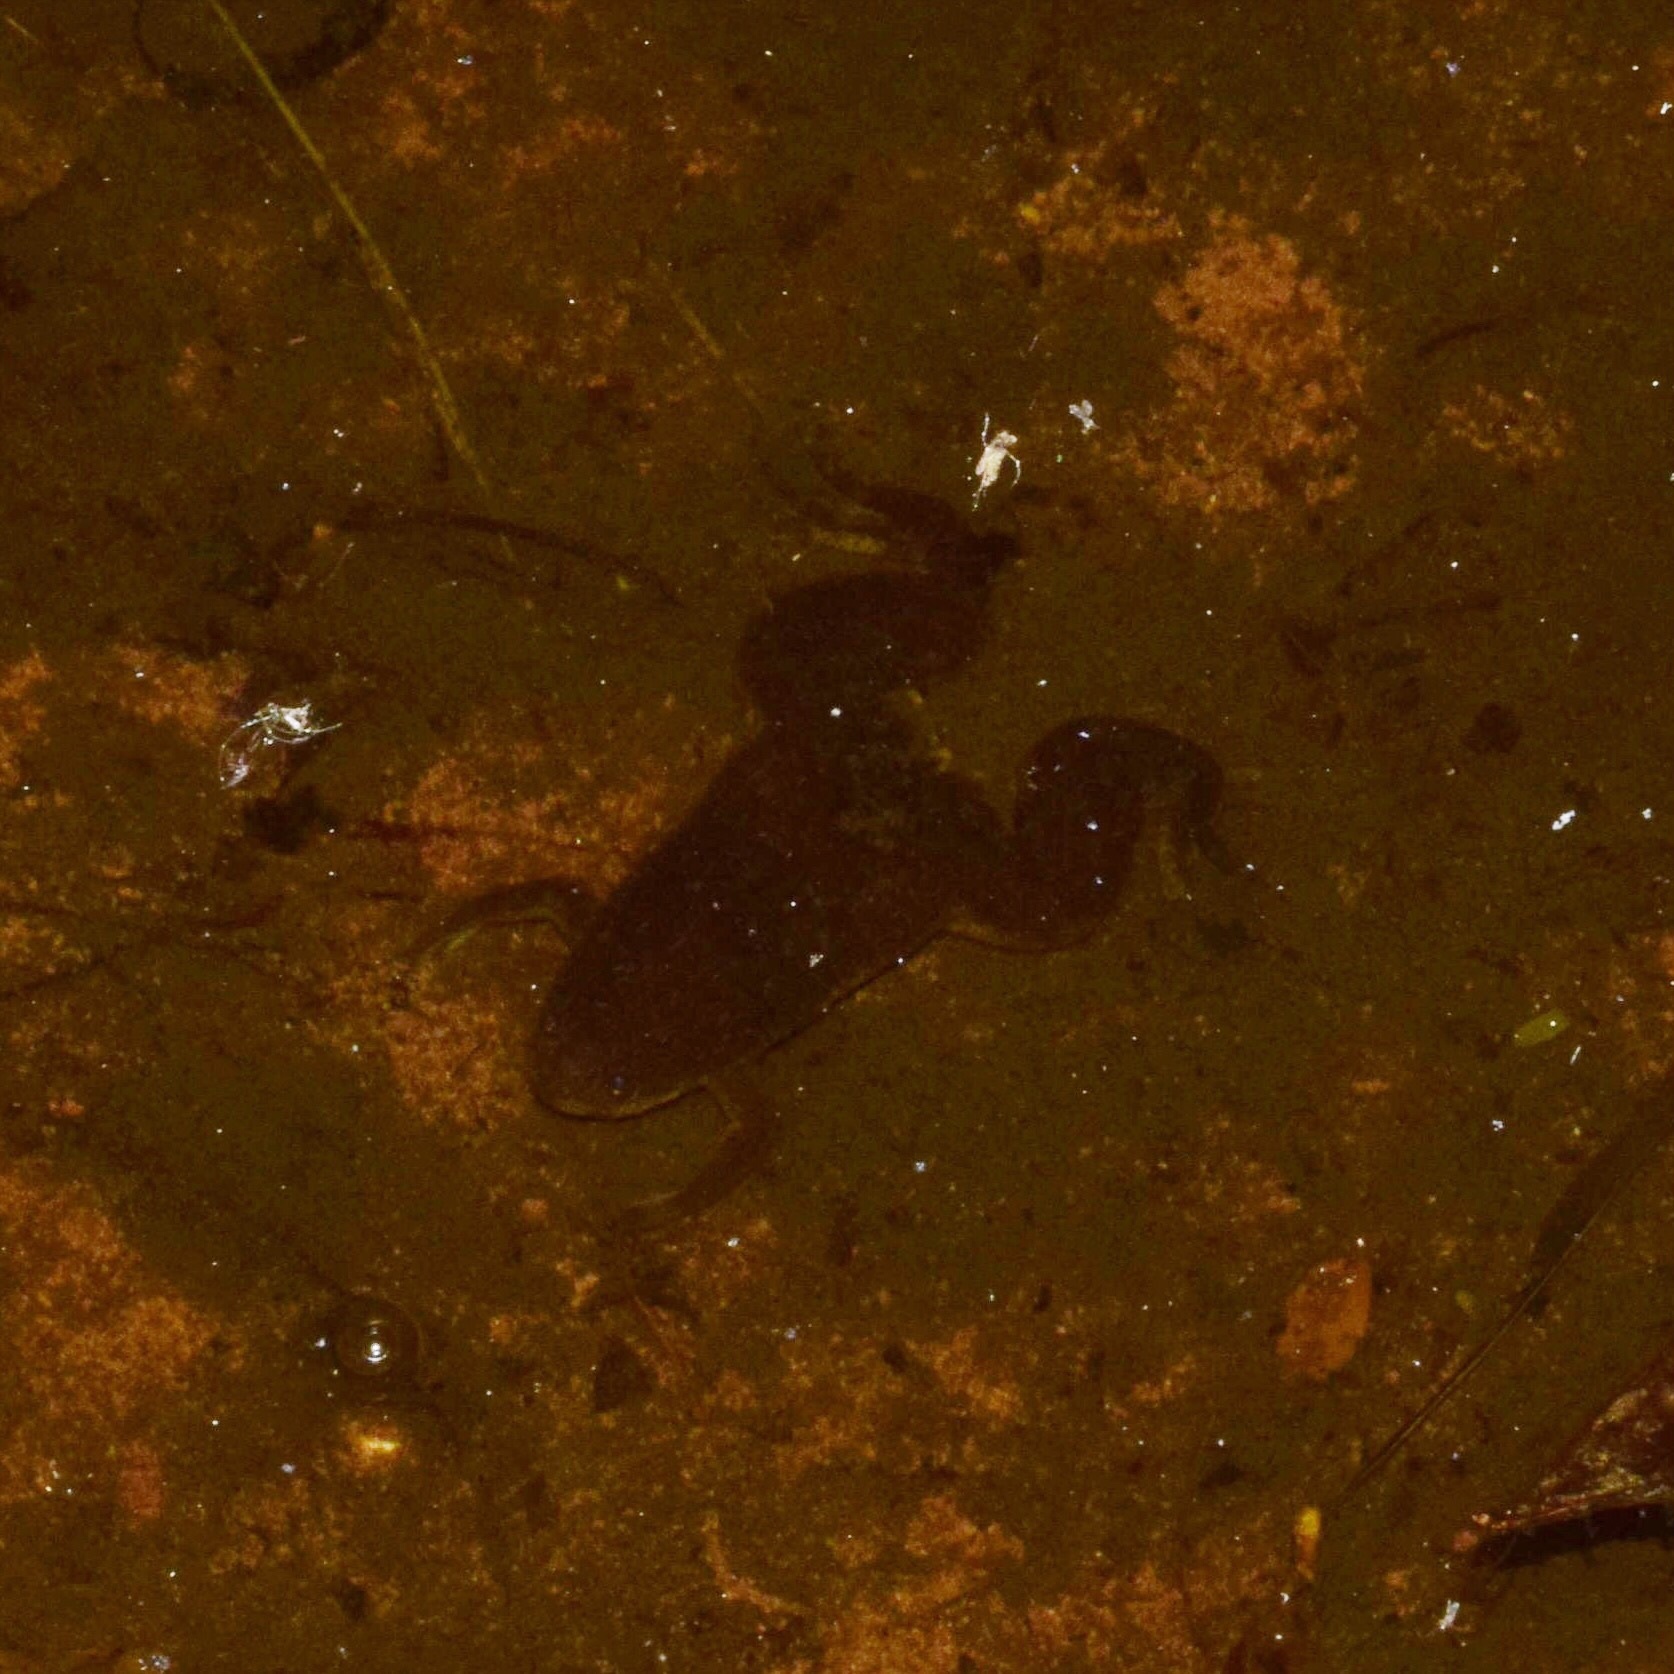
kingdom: Animalia
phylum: Chordata
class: Amphibia
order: Anura
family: Pipidae
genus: Xenopus
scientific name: Xenopus laevis
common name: African clawed frog
